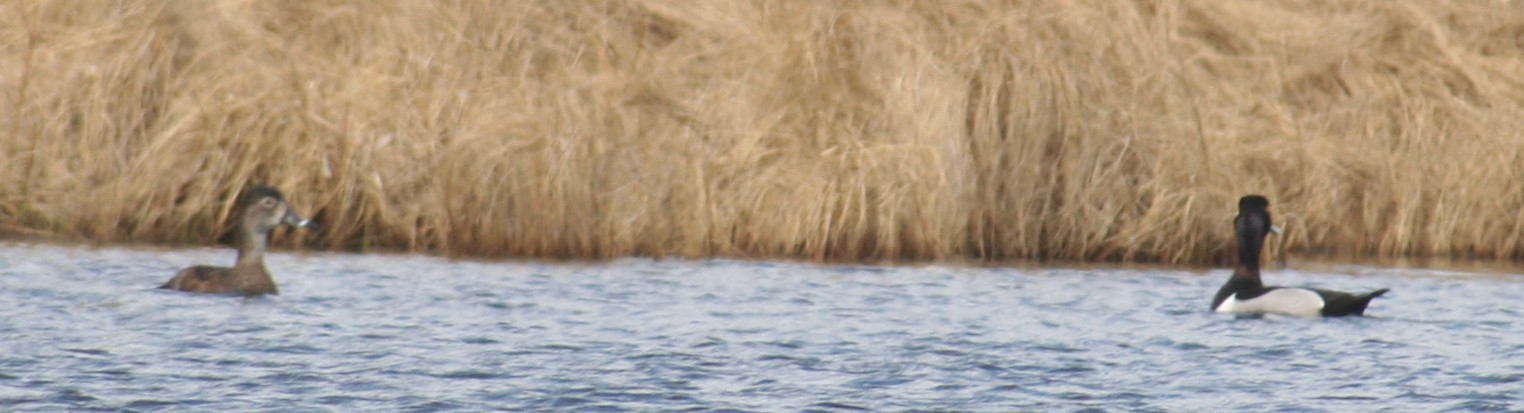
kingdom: Animalia
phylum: Chordata
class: Aves
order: Anseriformes
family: Anatidae
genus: Aythya
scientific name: Aythya collaris
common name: Ring-necked duck
